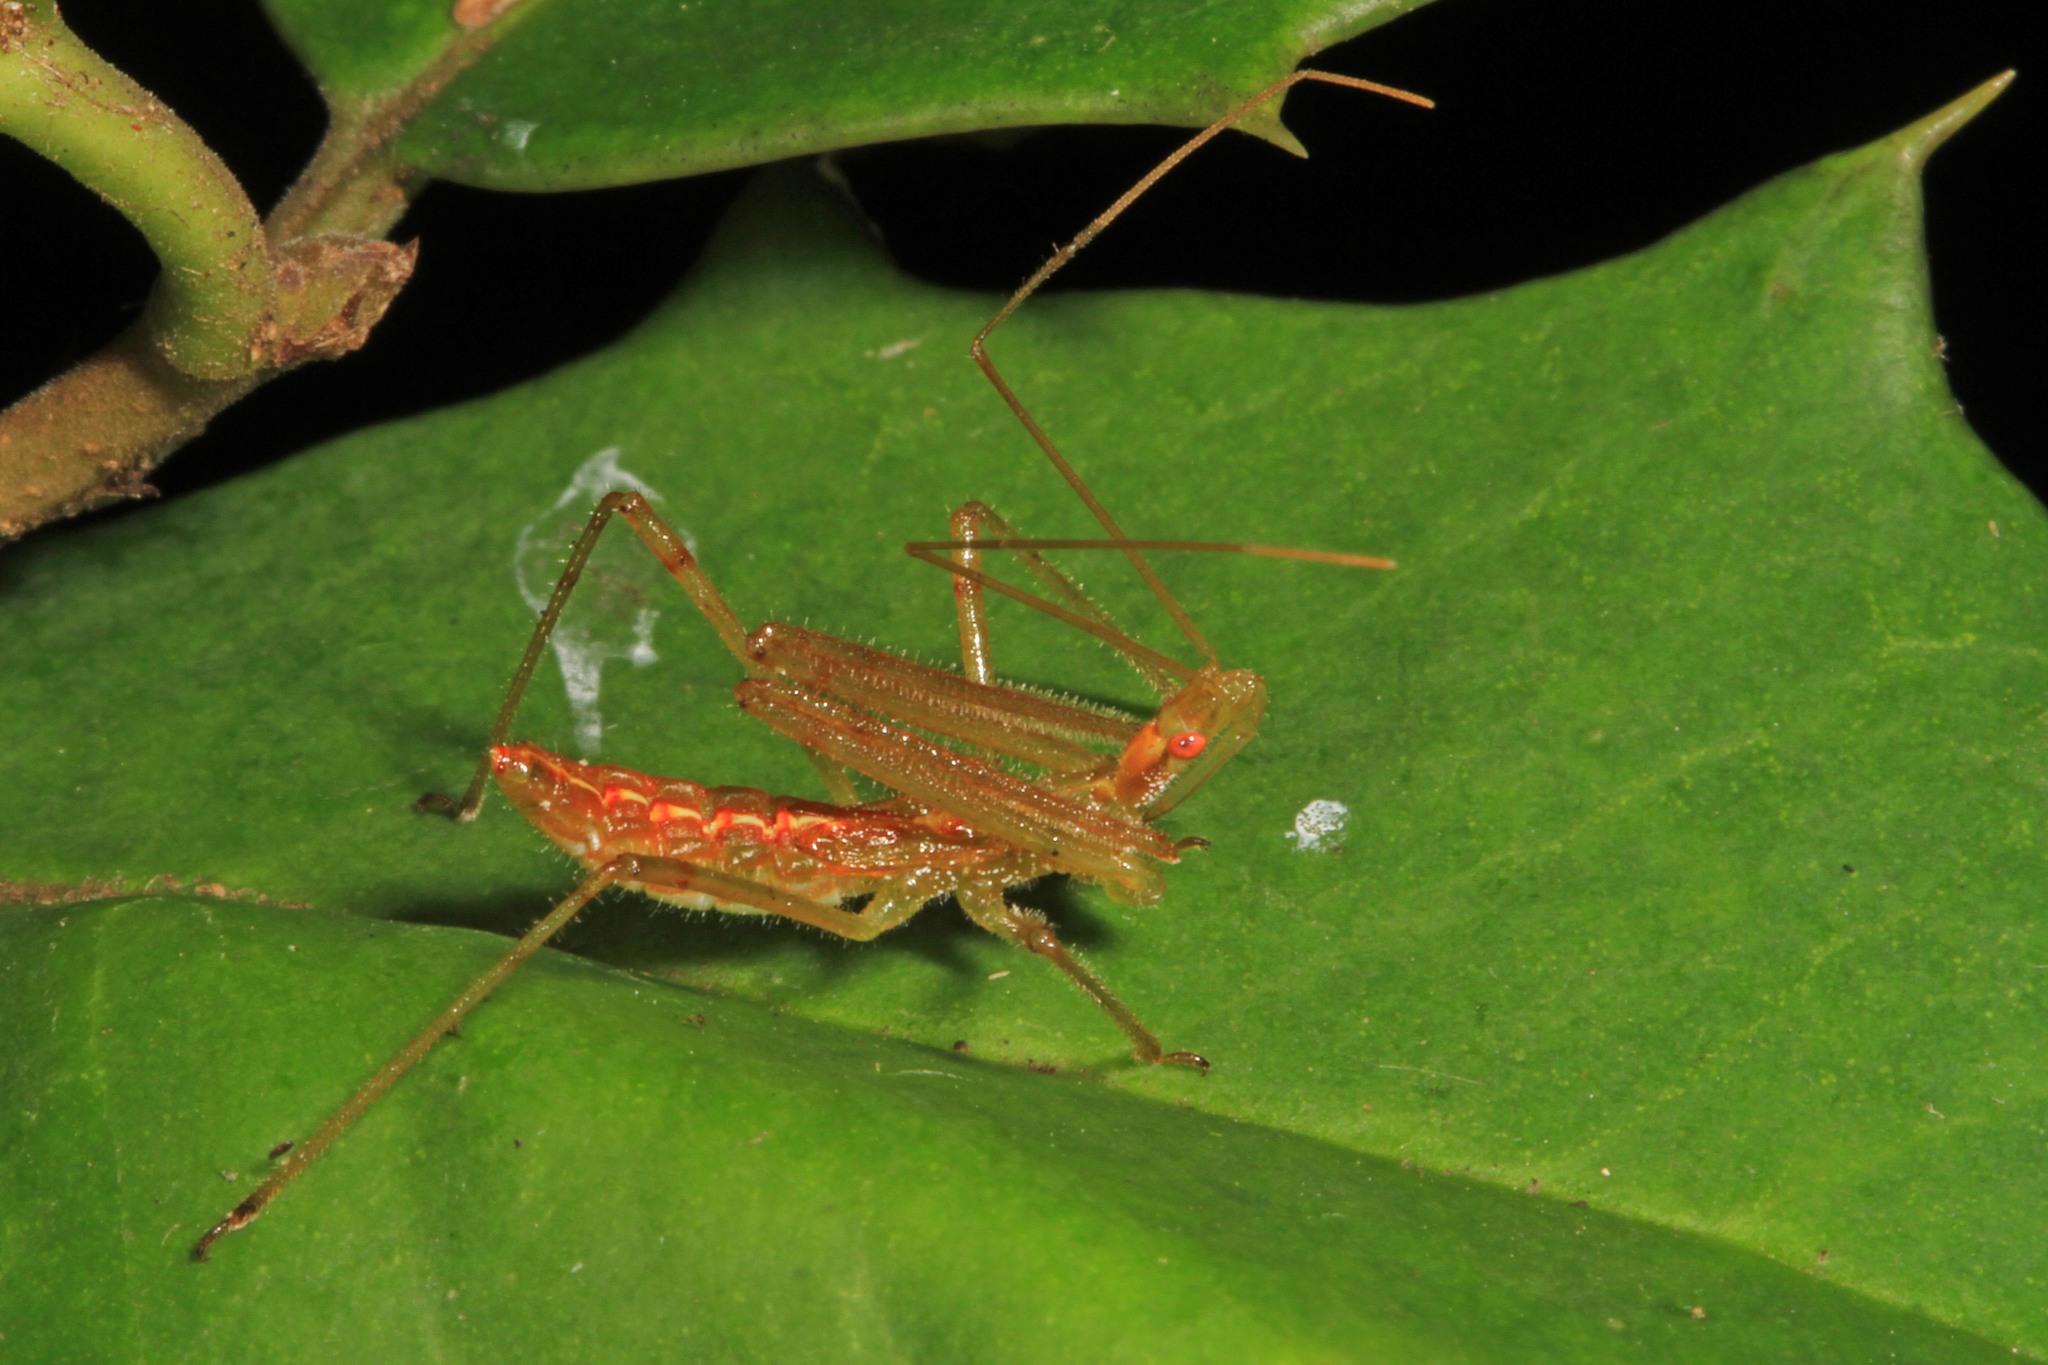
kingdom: Animalia
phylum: Arthropoda
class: Insecta
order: Hemiptera
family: Reduviidae
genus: Zelus
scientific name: Zelus luridus
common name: Pale green assassin bug
